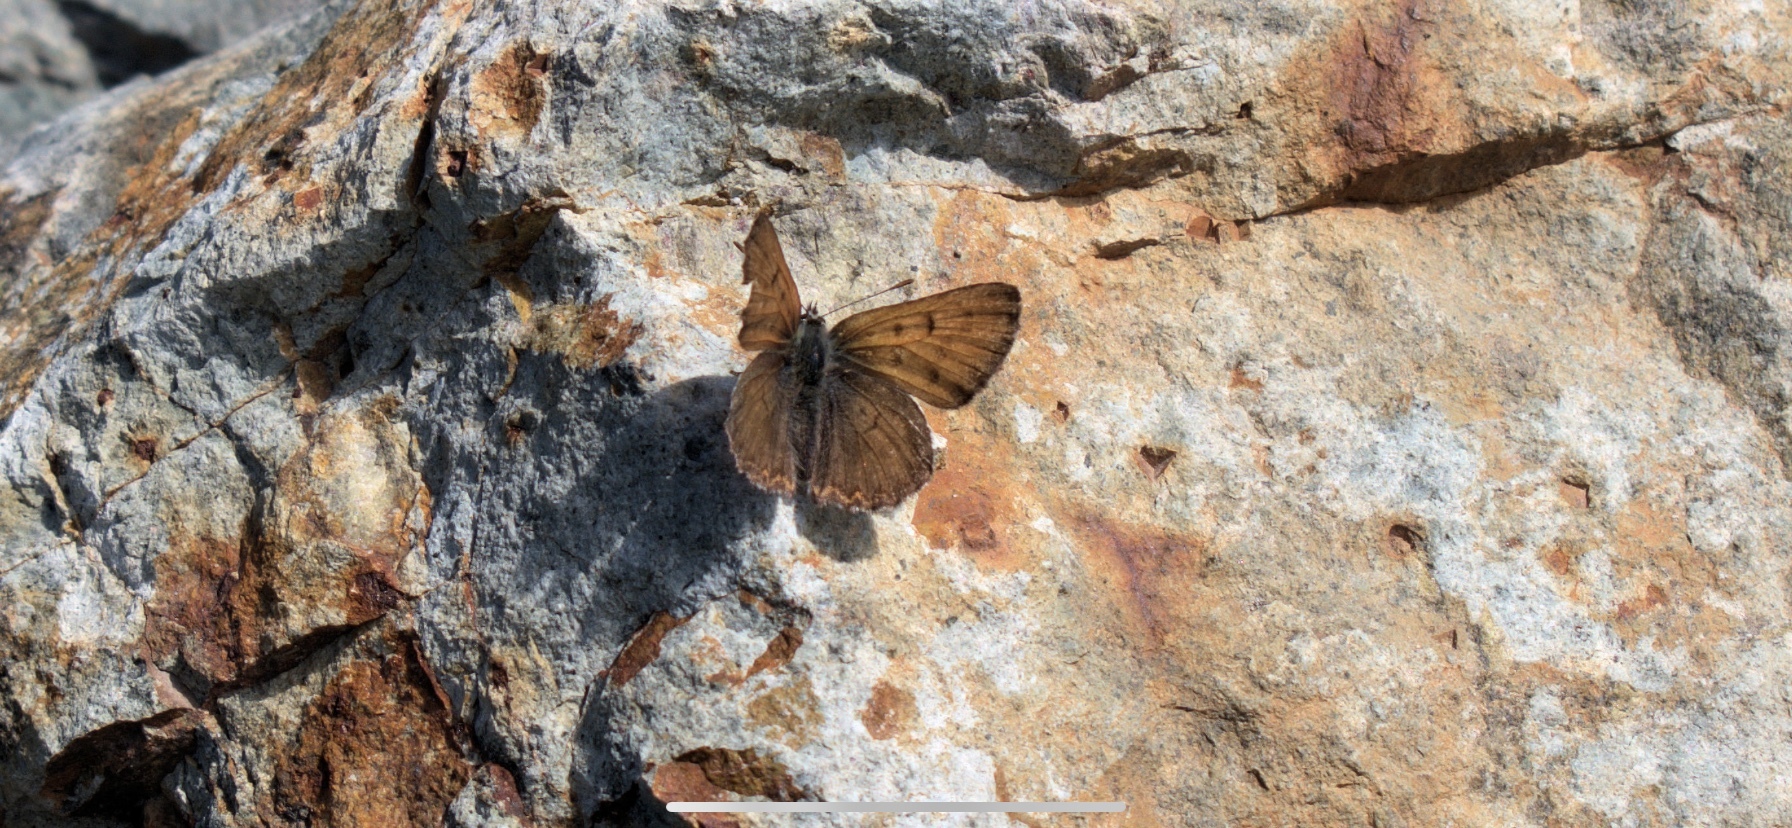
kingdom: Animalia
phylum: Arthropoda
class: Insecta
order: Lepidoptera
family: Lycaenidae
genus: Tharsalea
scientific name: Tharsalea mariposa
